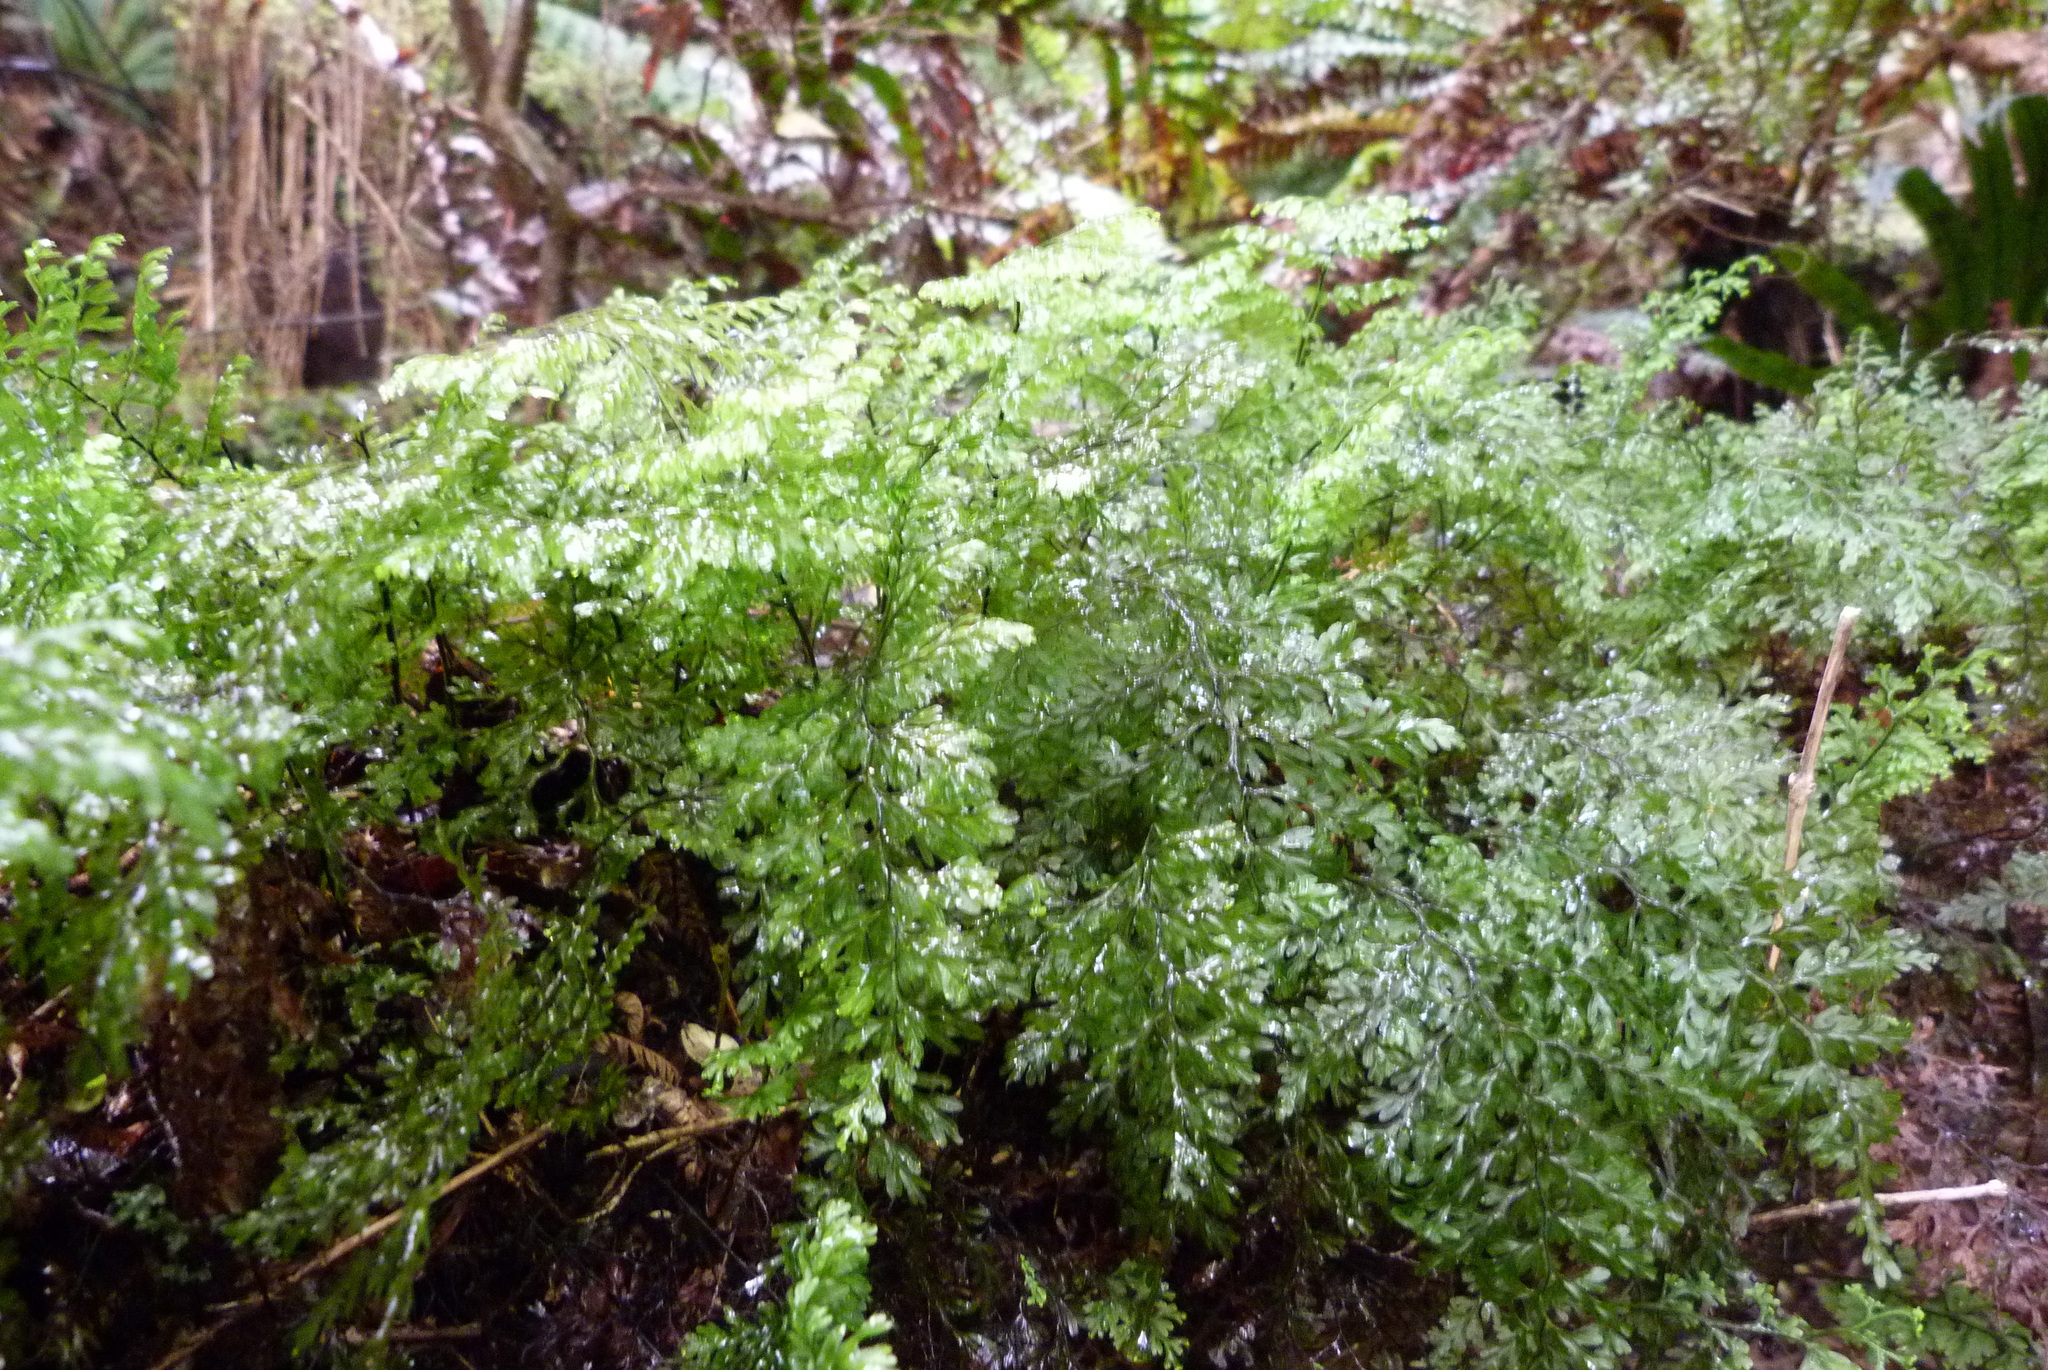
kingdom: Plantae
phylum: Tracheophyta
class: Polypodiopsida
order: Hymenophyllales
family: Hymenophyllaceae
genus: Hymenophyllum
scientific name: Hymenophyllum sanguinolentum
